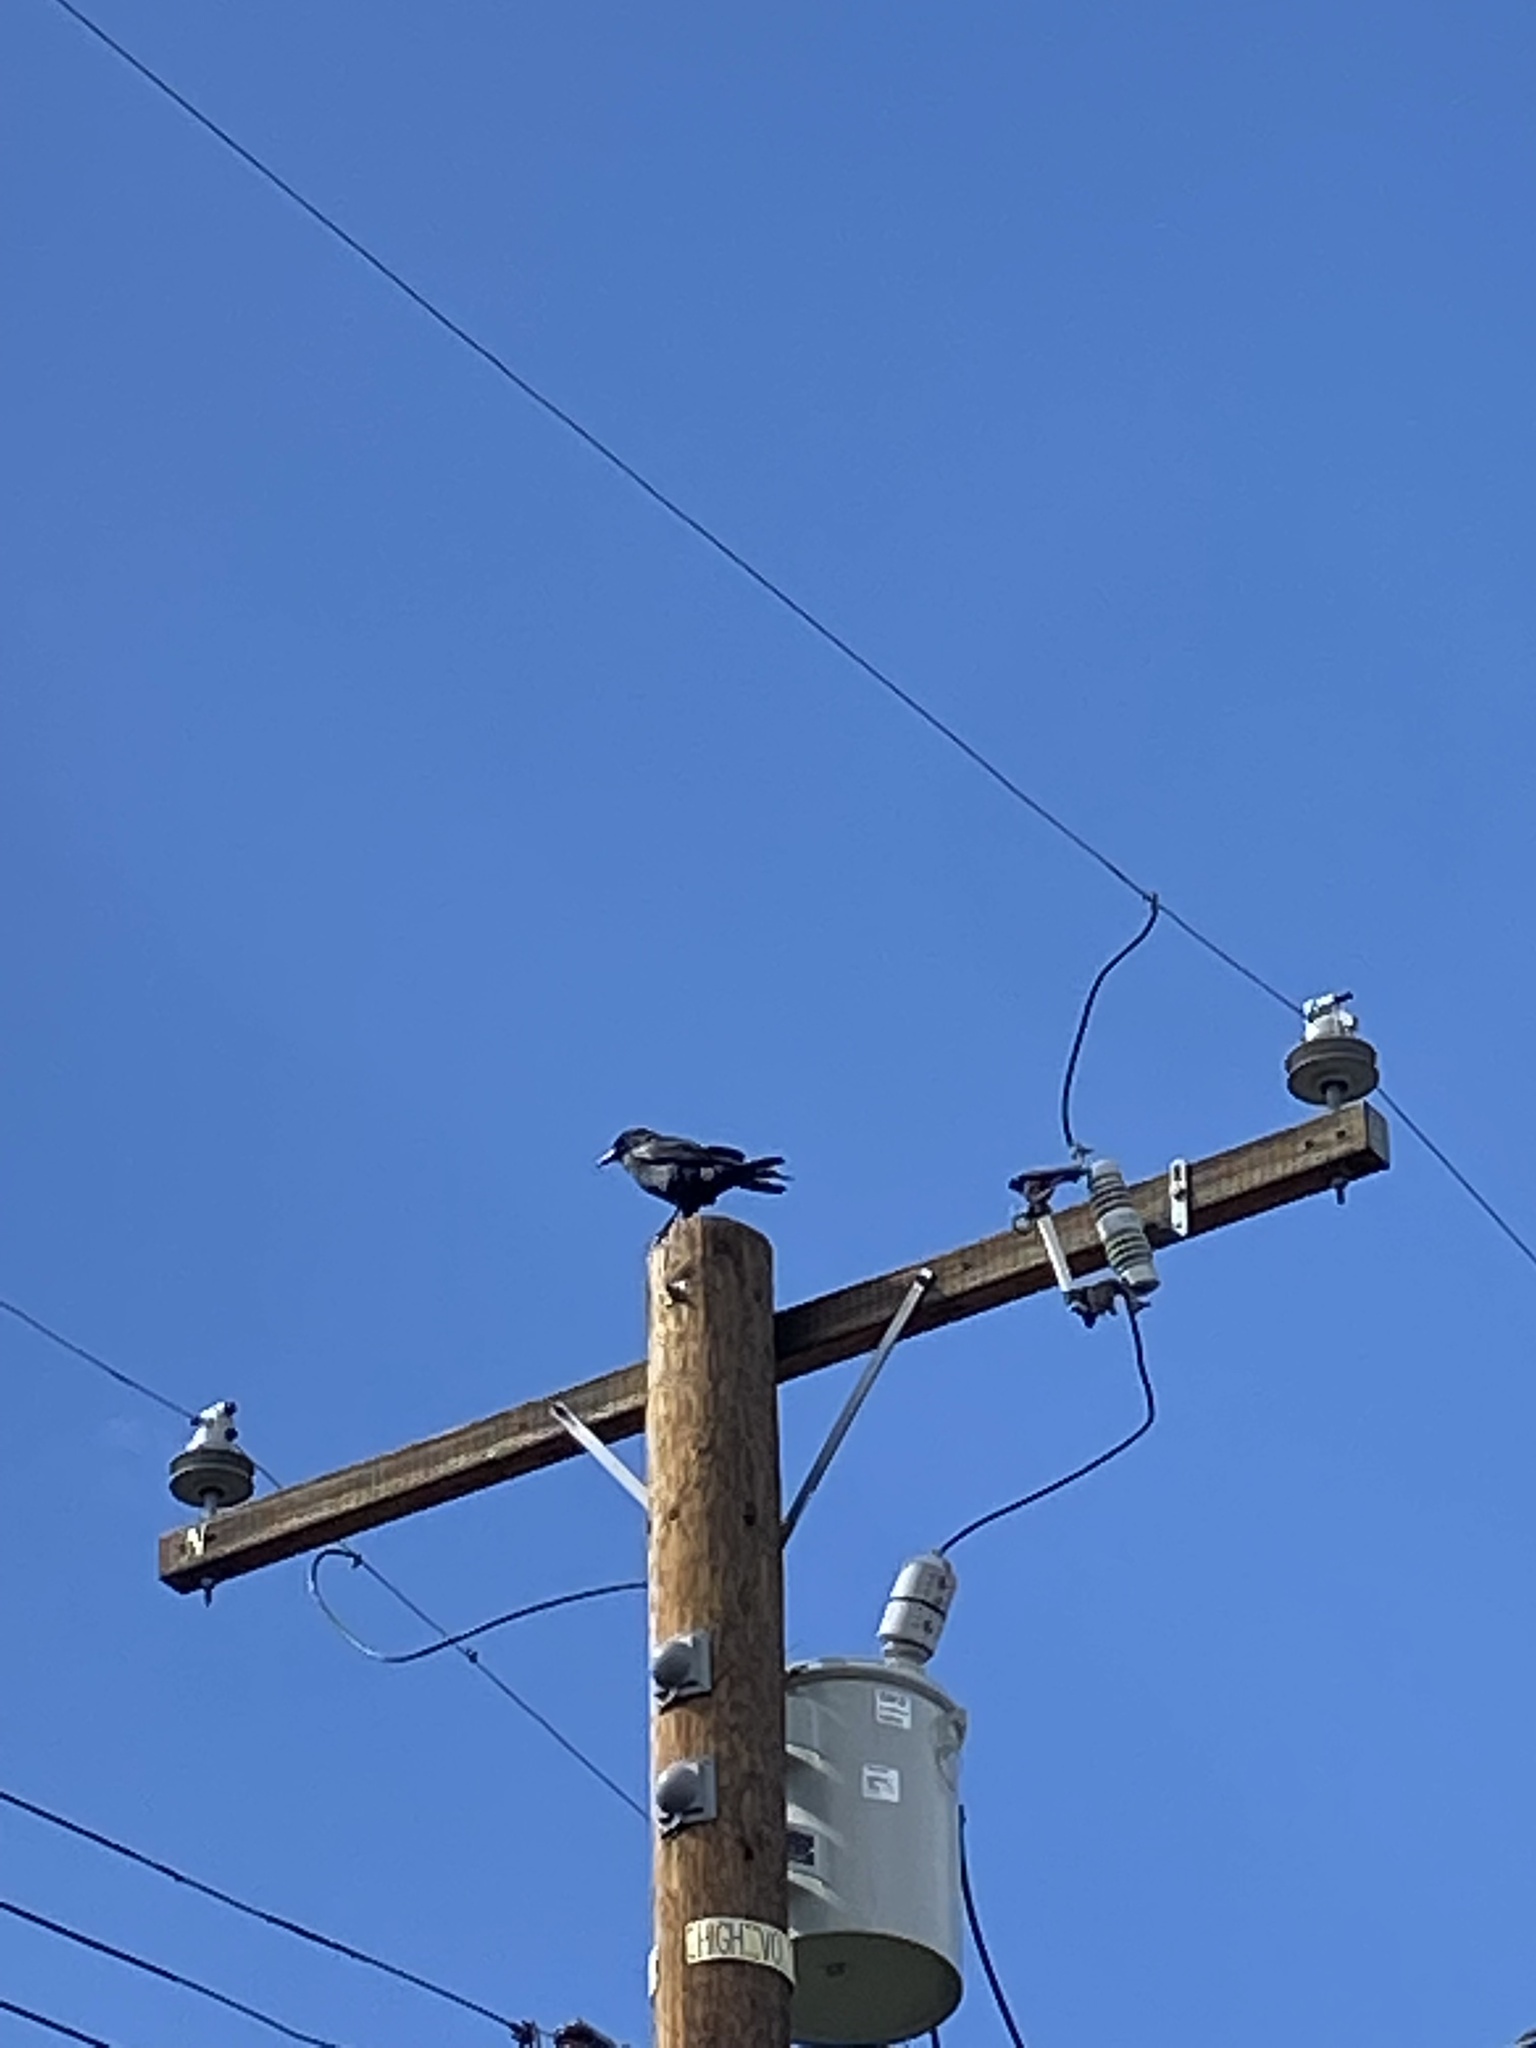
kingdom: Animalia
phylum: Chordata
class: Aves
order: Passeriformes
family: Corvidae
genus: Corvus
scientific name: Corvus corax
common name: Common raven
